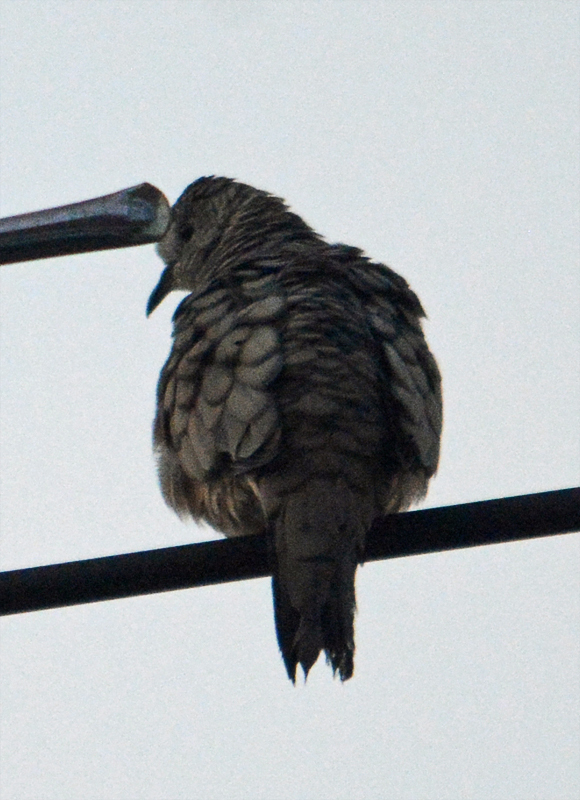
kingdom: Animalia
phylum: Chordata
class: Aves
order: Columbiformes
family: Columbidae
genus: Columbina
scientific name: Columbina inca
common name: Inca dove
